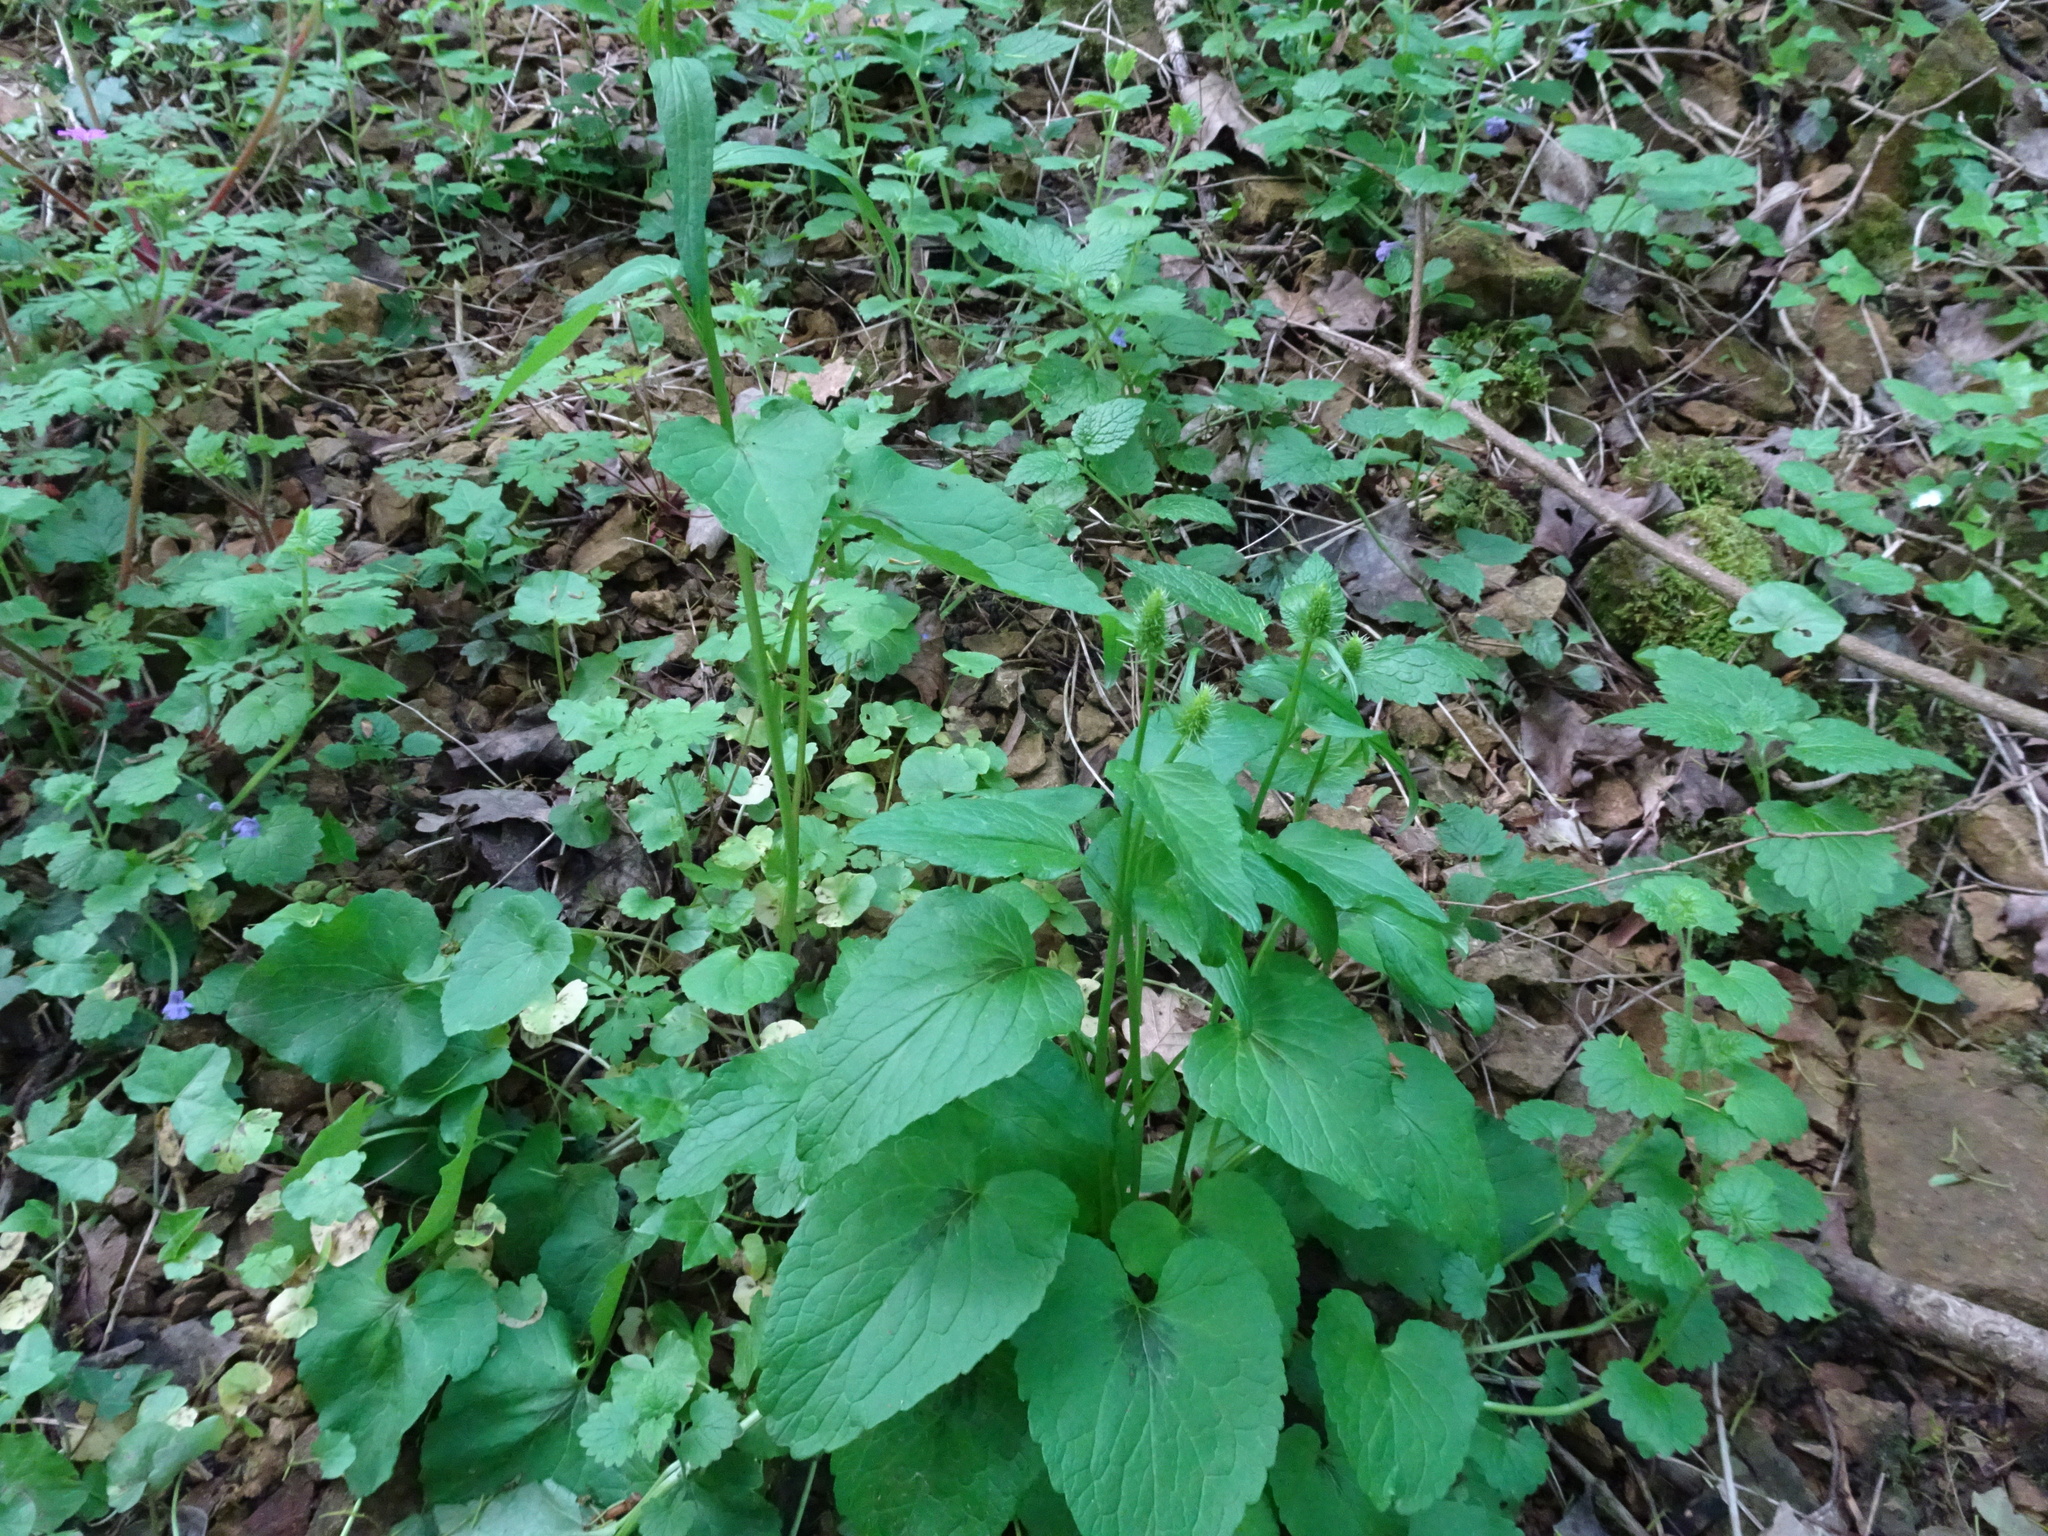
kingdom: Plantae
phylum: Tracheophyta
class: Magnoliopsida
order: Asterales
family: Campanulaceae
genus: Phyteuma
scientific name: Phyteuma spicatum
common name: Spiked rampion
